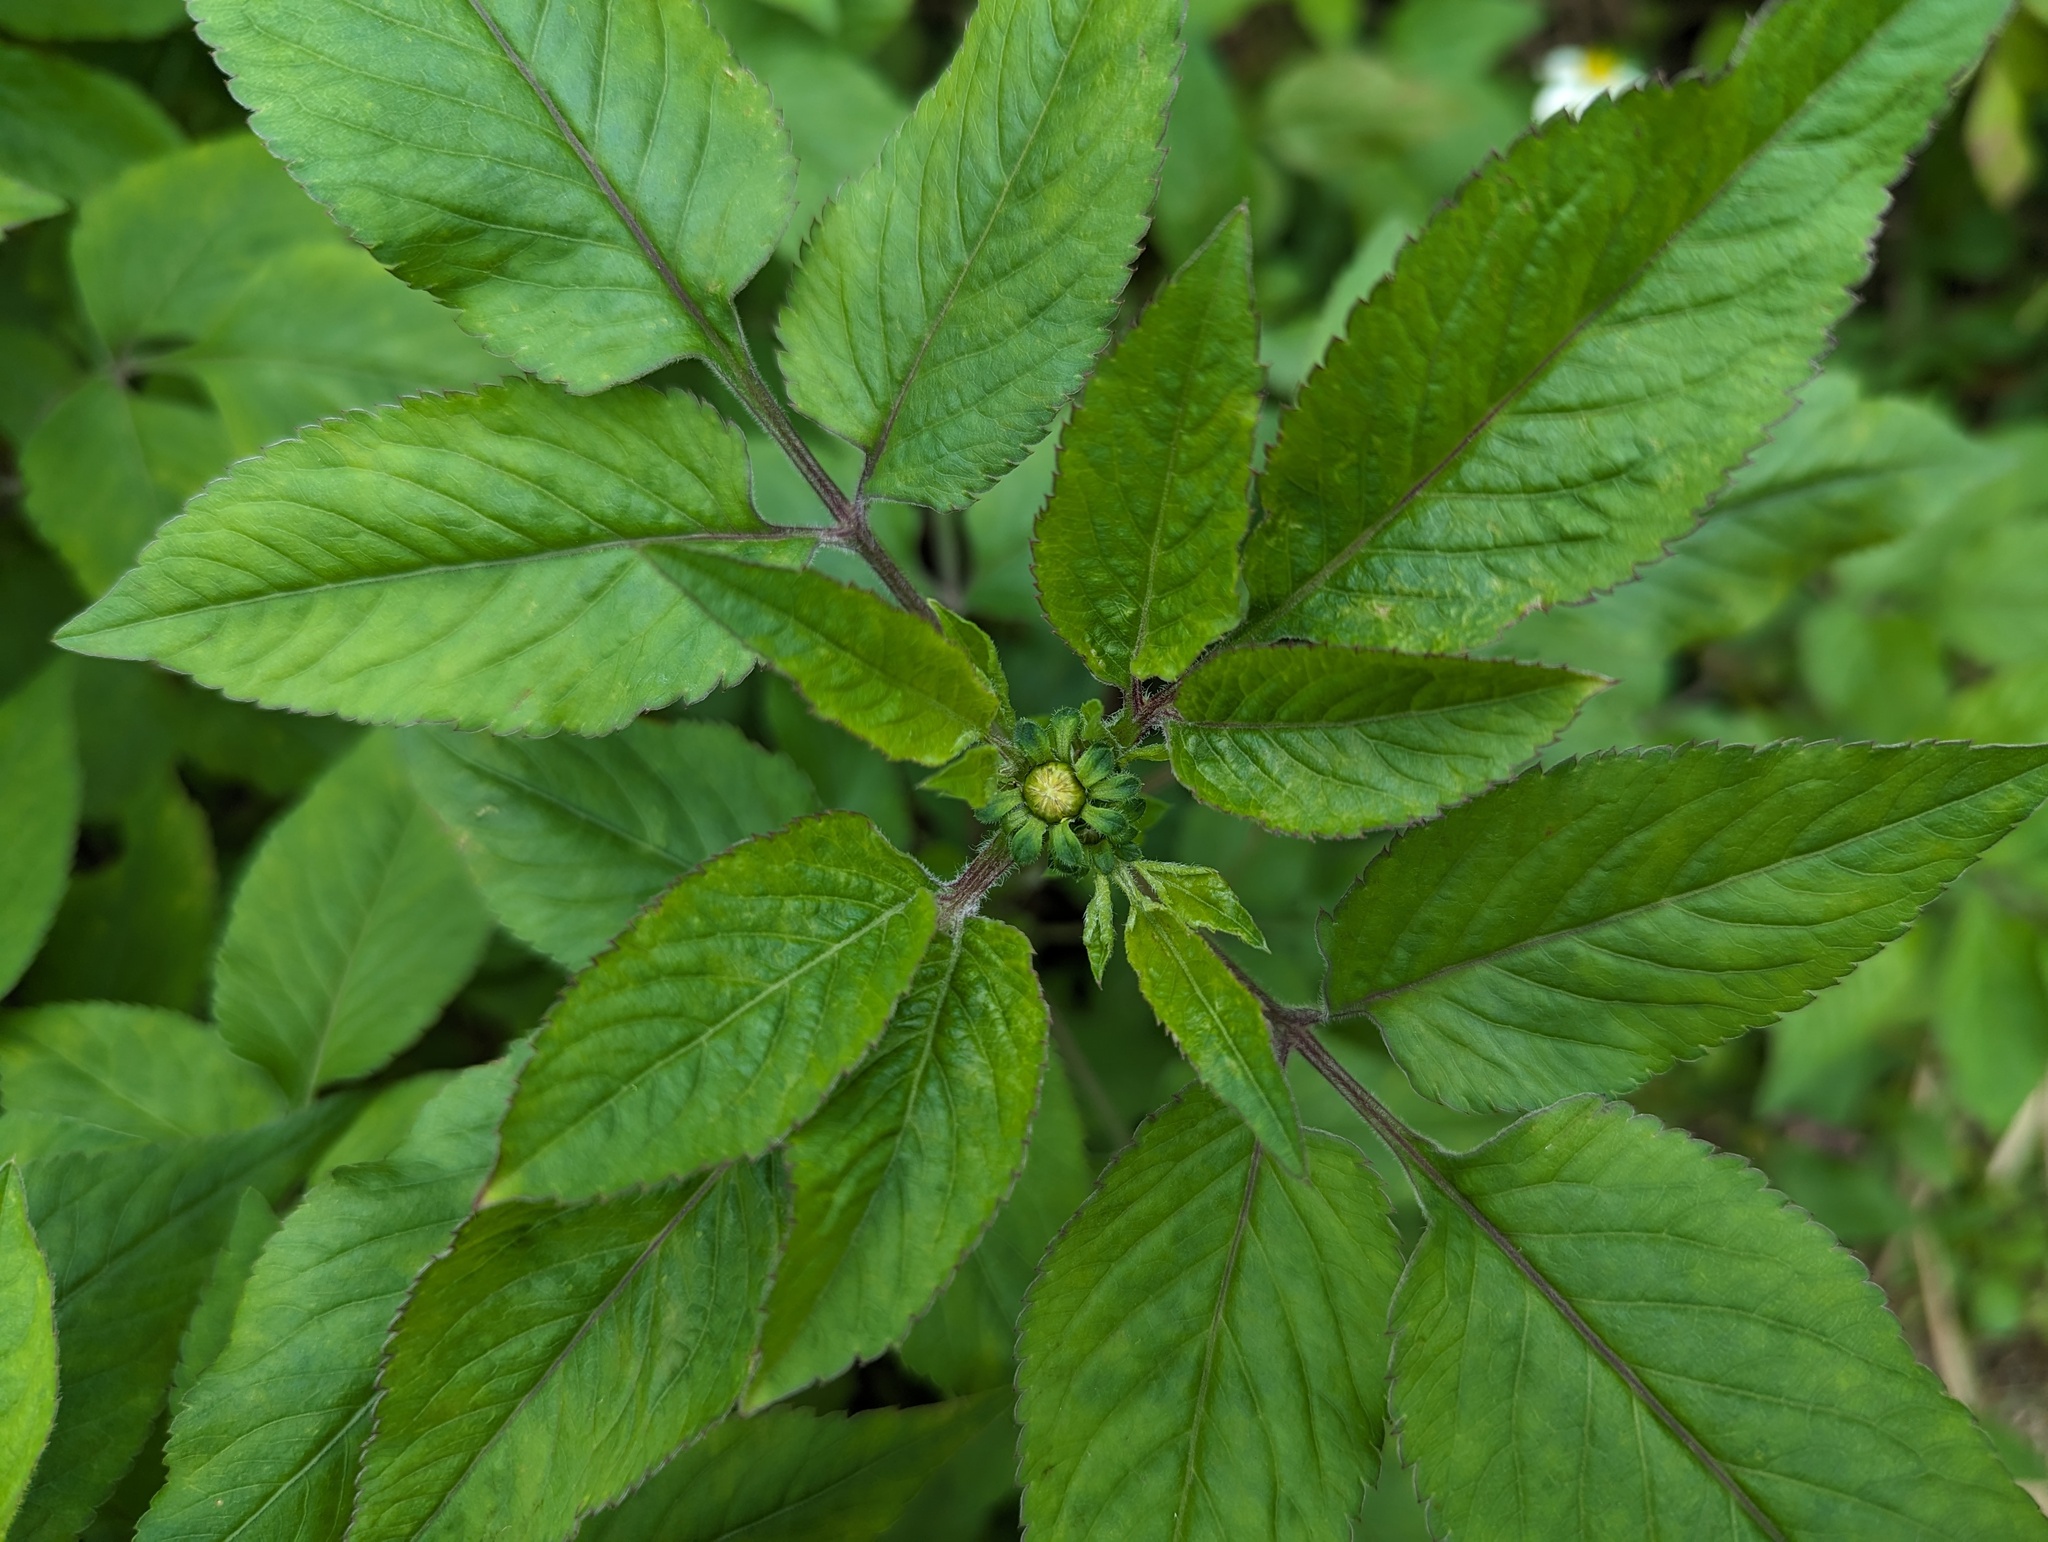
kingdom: Plantae
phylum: Tracheophyta
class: Magnoliopsida
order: Asterales
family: Asteraceae
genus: Bidens
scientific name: Bidens alba
